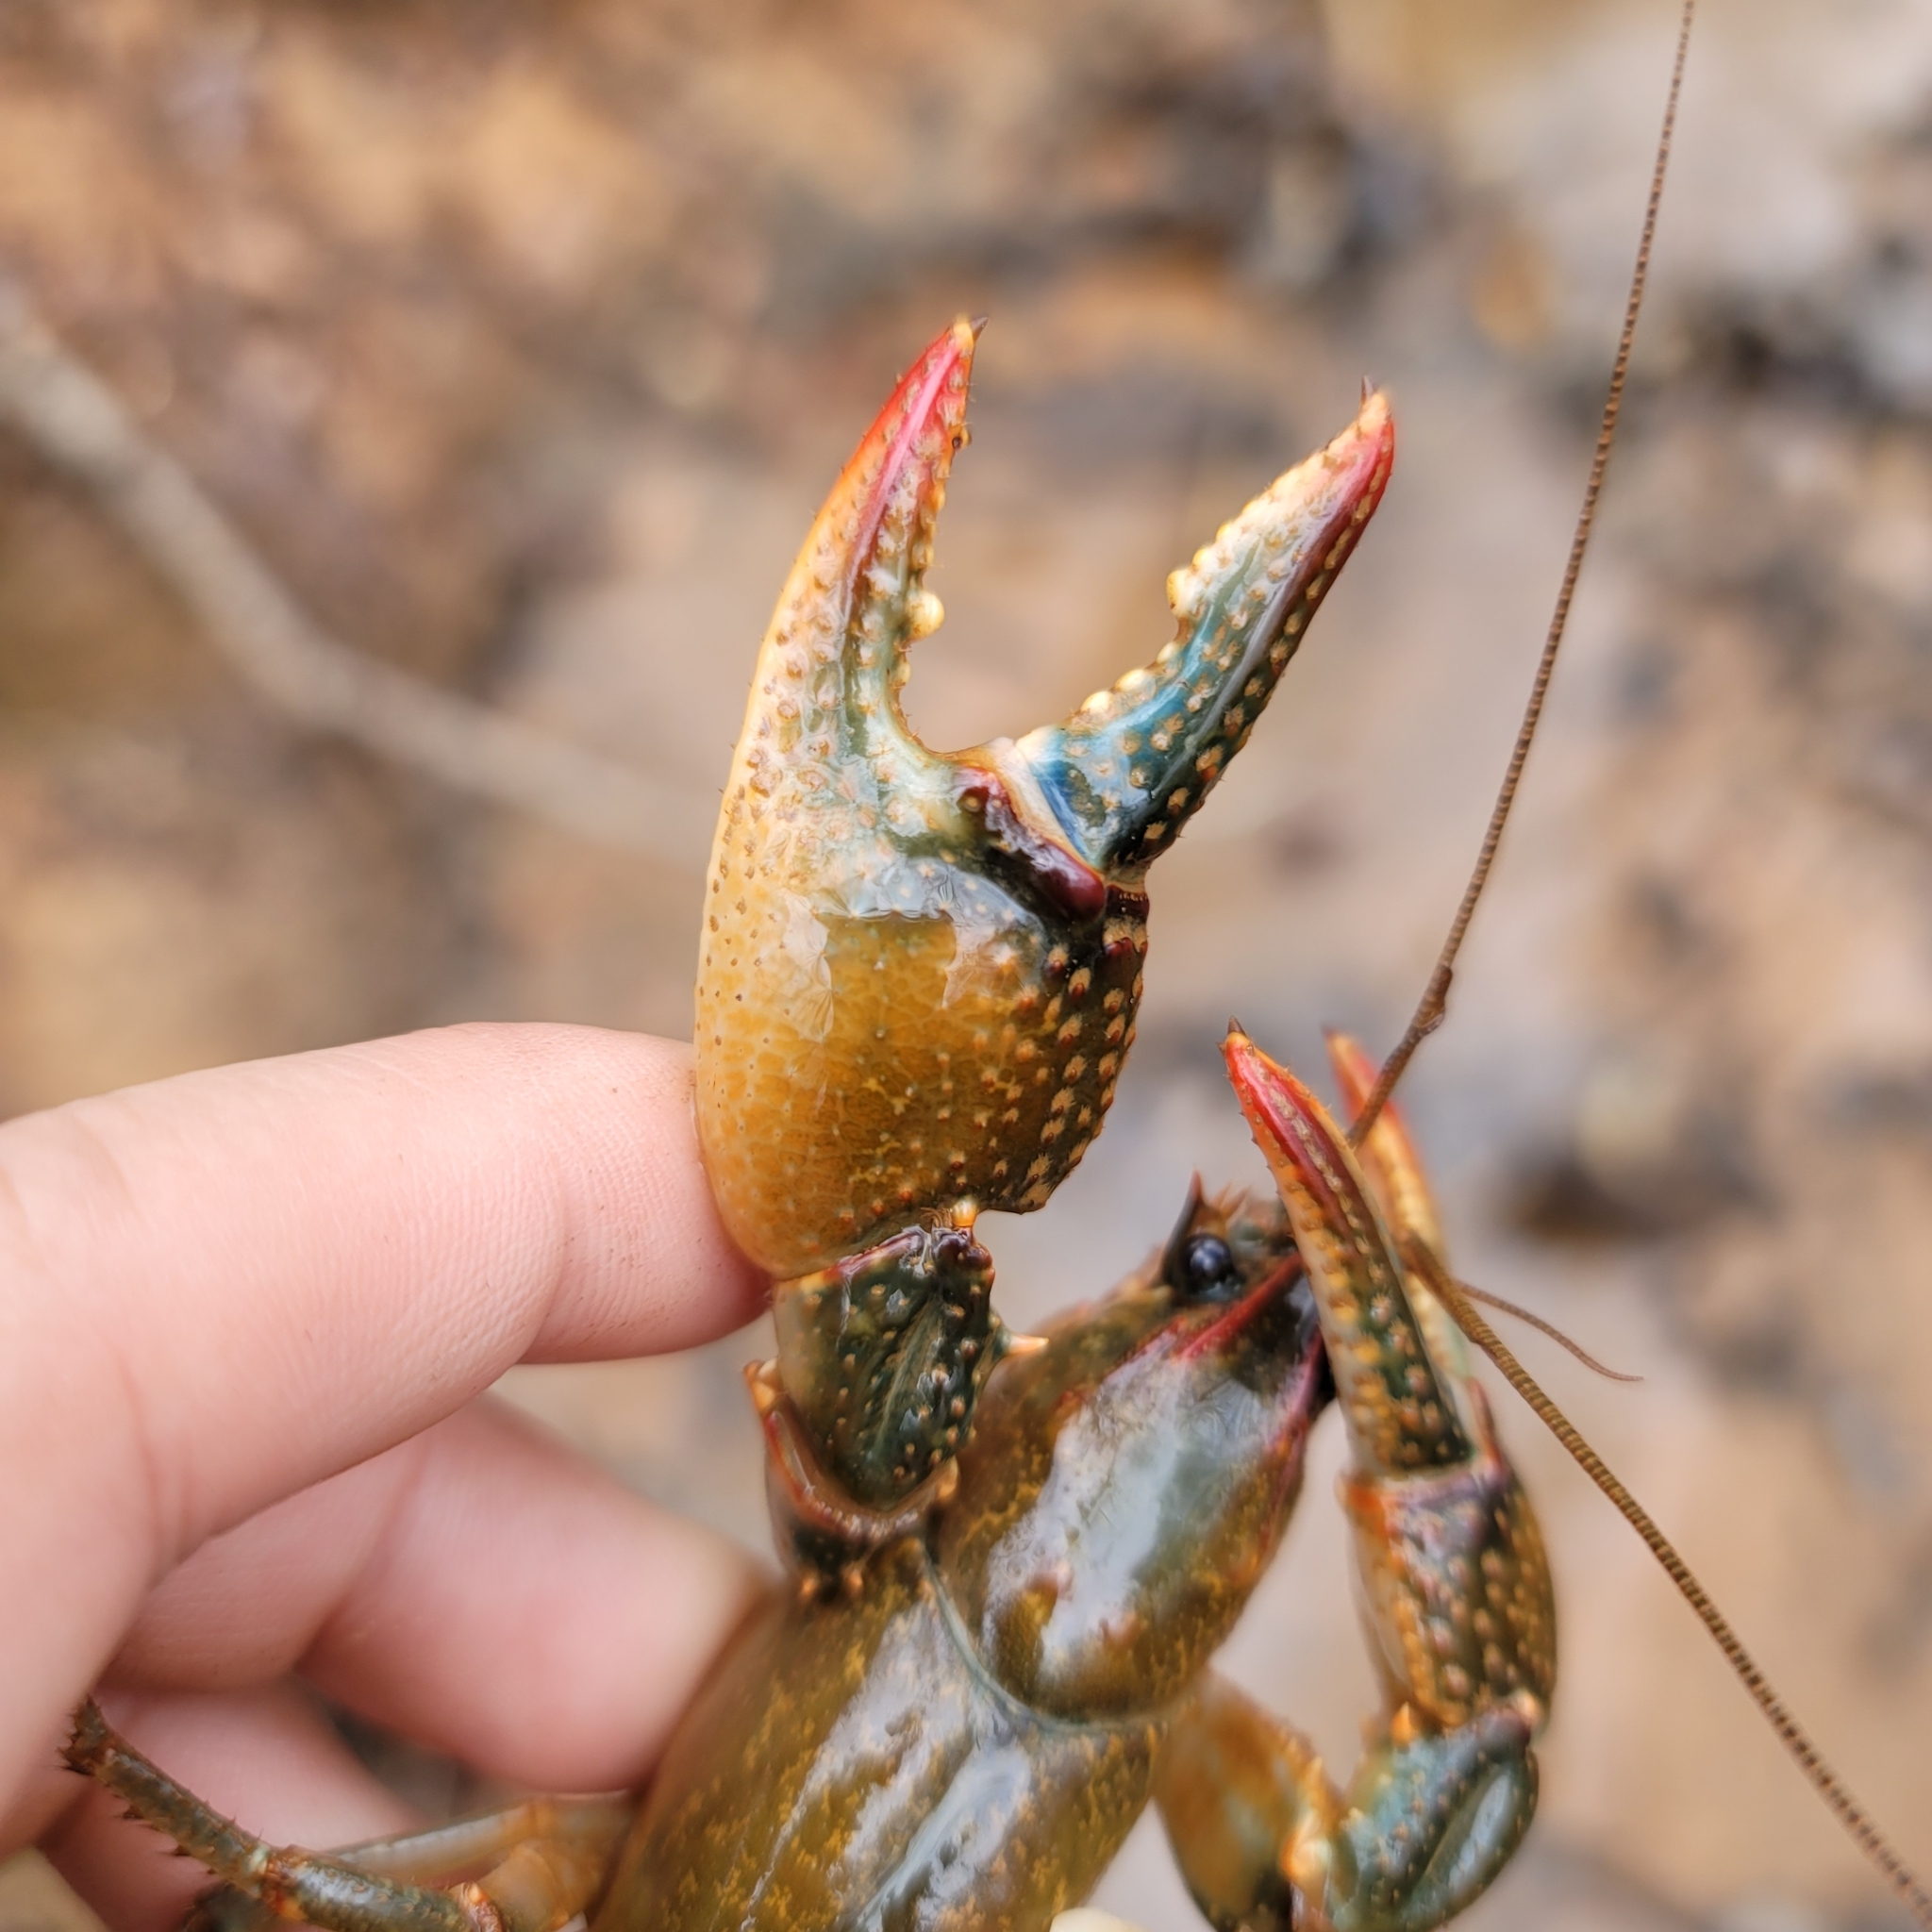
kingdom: Animalia
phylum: Arthropoda
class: Malacostraca
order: Decapoda
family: Cambaridae
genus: Lacunicambarus
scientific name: Lacunicambarus dalyae
